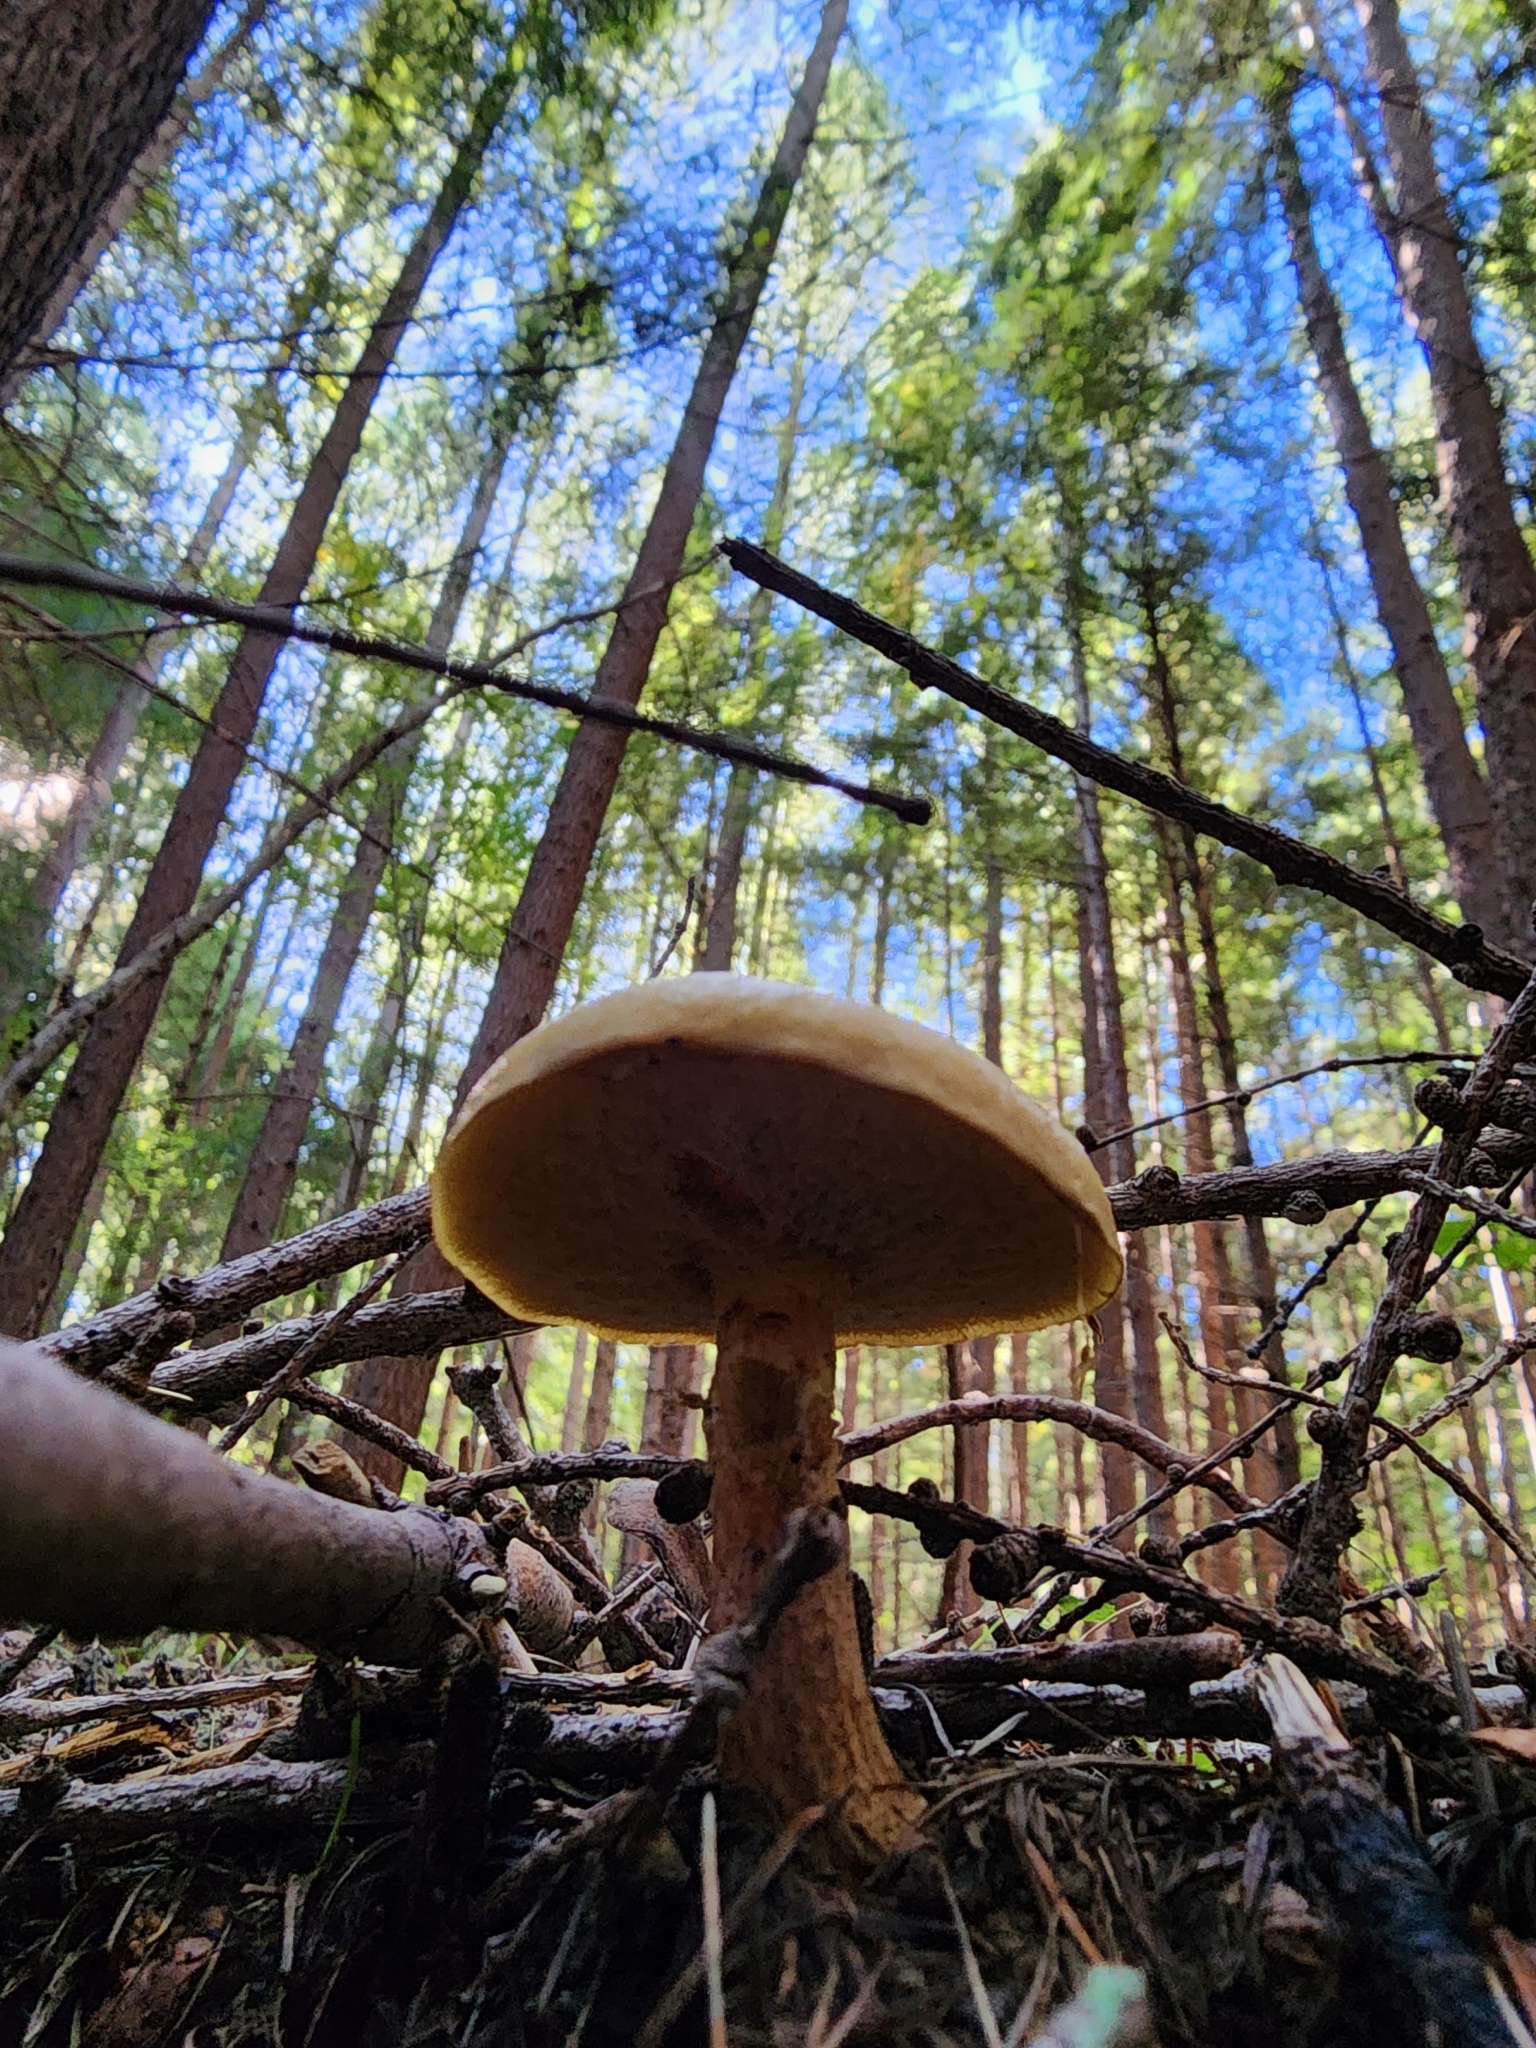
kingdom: Fungi
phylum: Basidiomycota
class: Agaricomycetes
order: Boletales
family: Suillaceae
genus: Suillus
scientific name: Suillus grevillei
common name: Larch bolete
